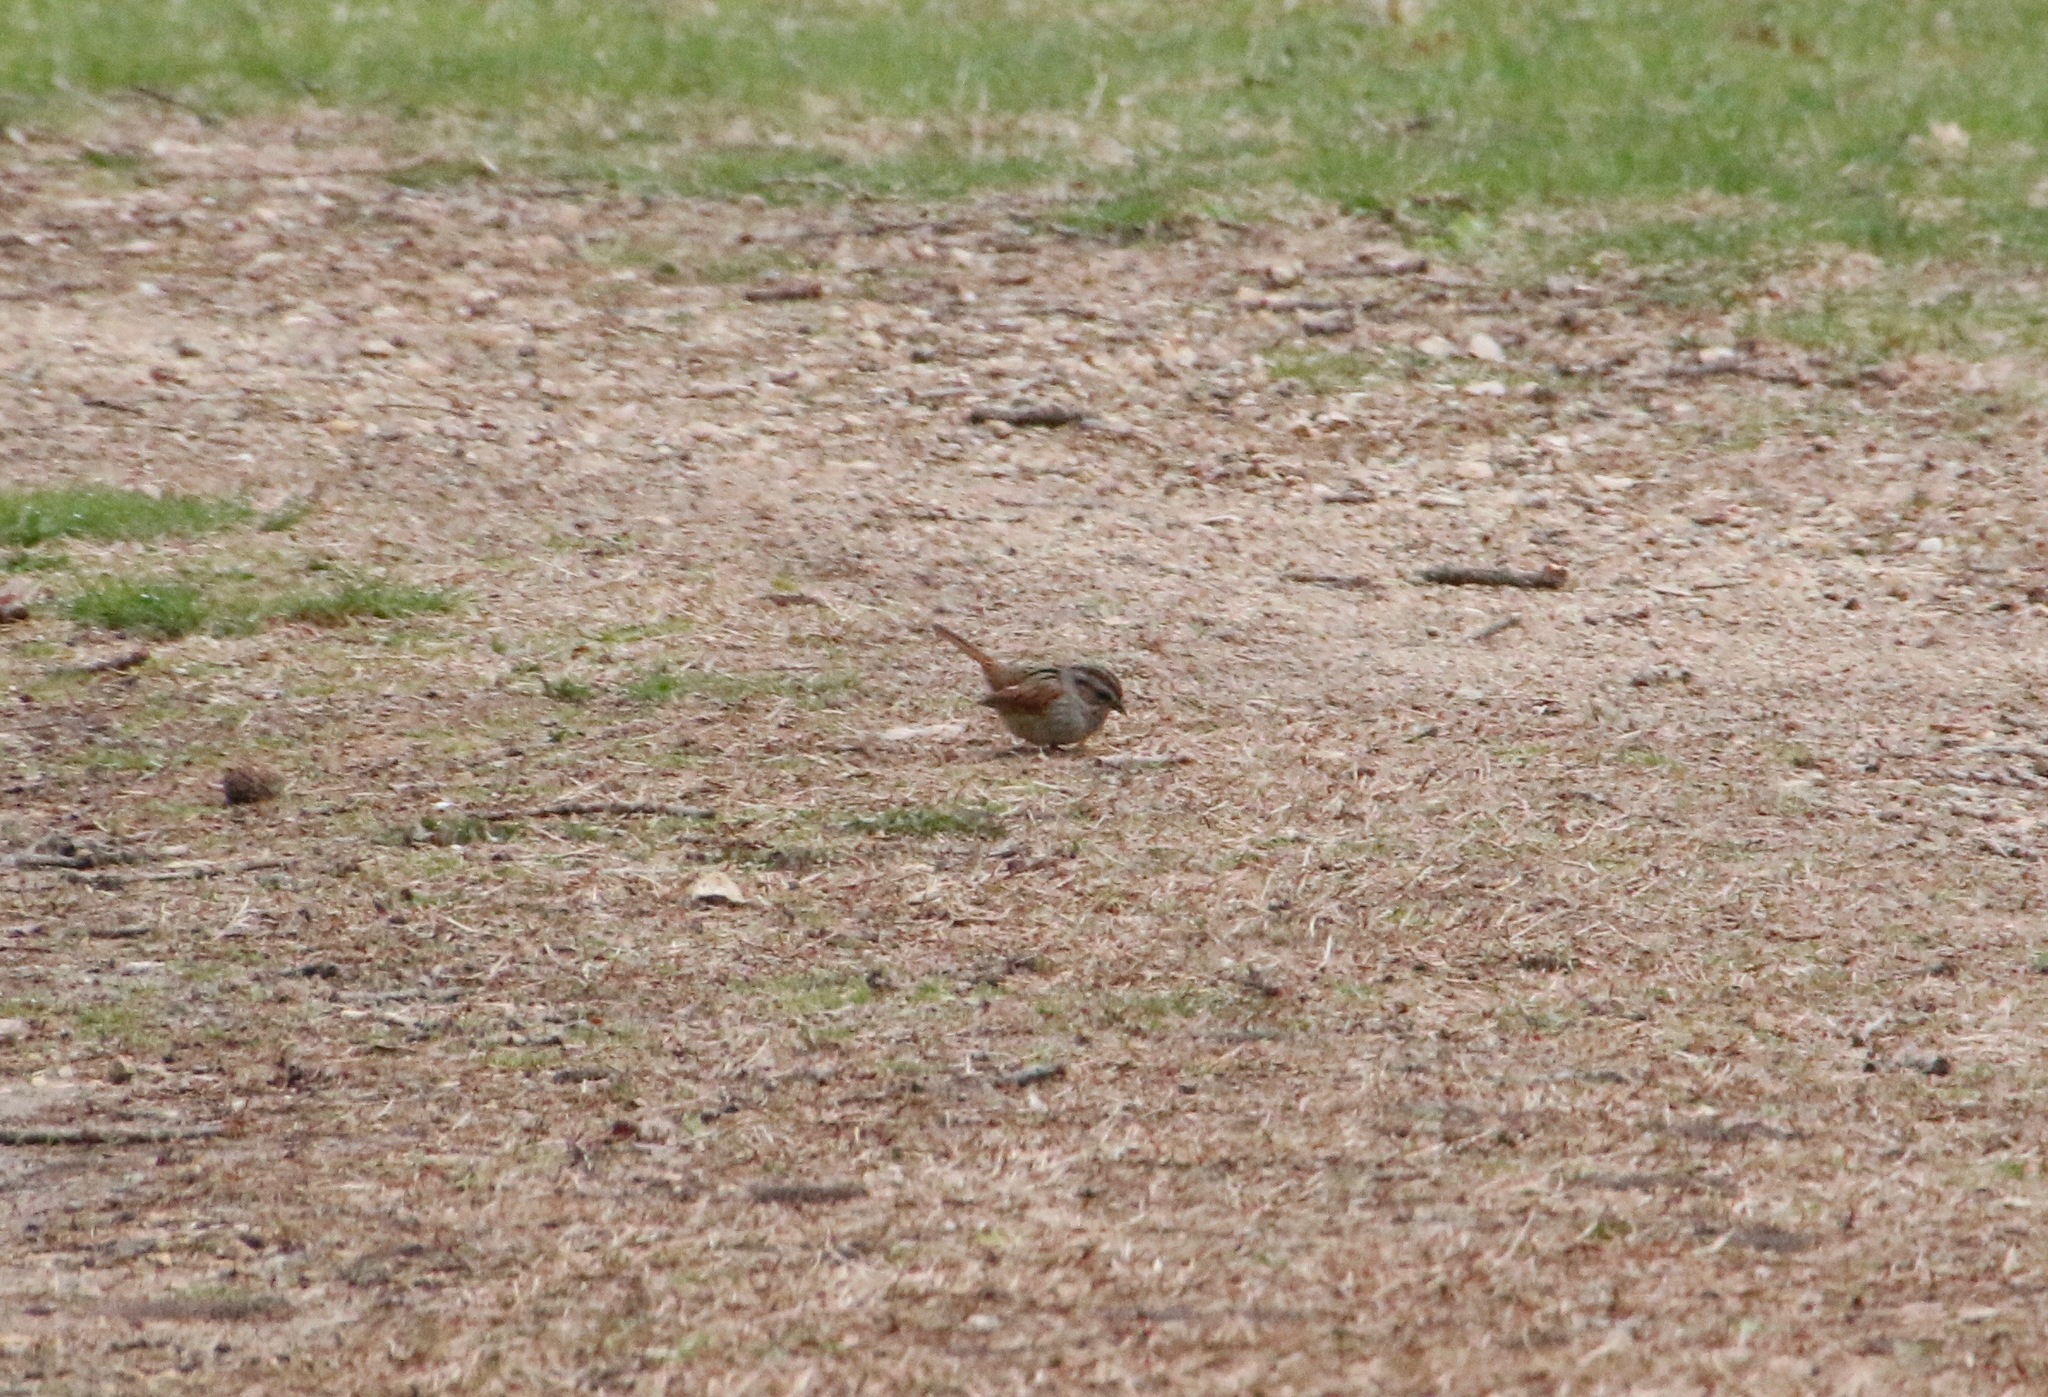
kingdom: Animalia
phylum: Chordata
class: Aves
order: Passeriformes
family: Passerellidae
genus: Melospiza
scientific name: Melospiza georgiana
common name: Swamp sparrow
